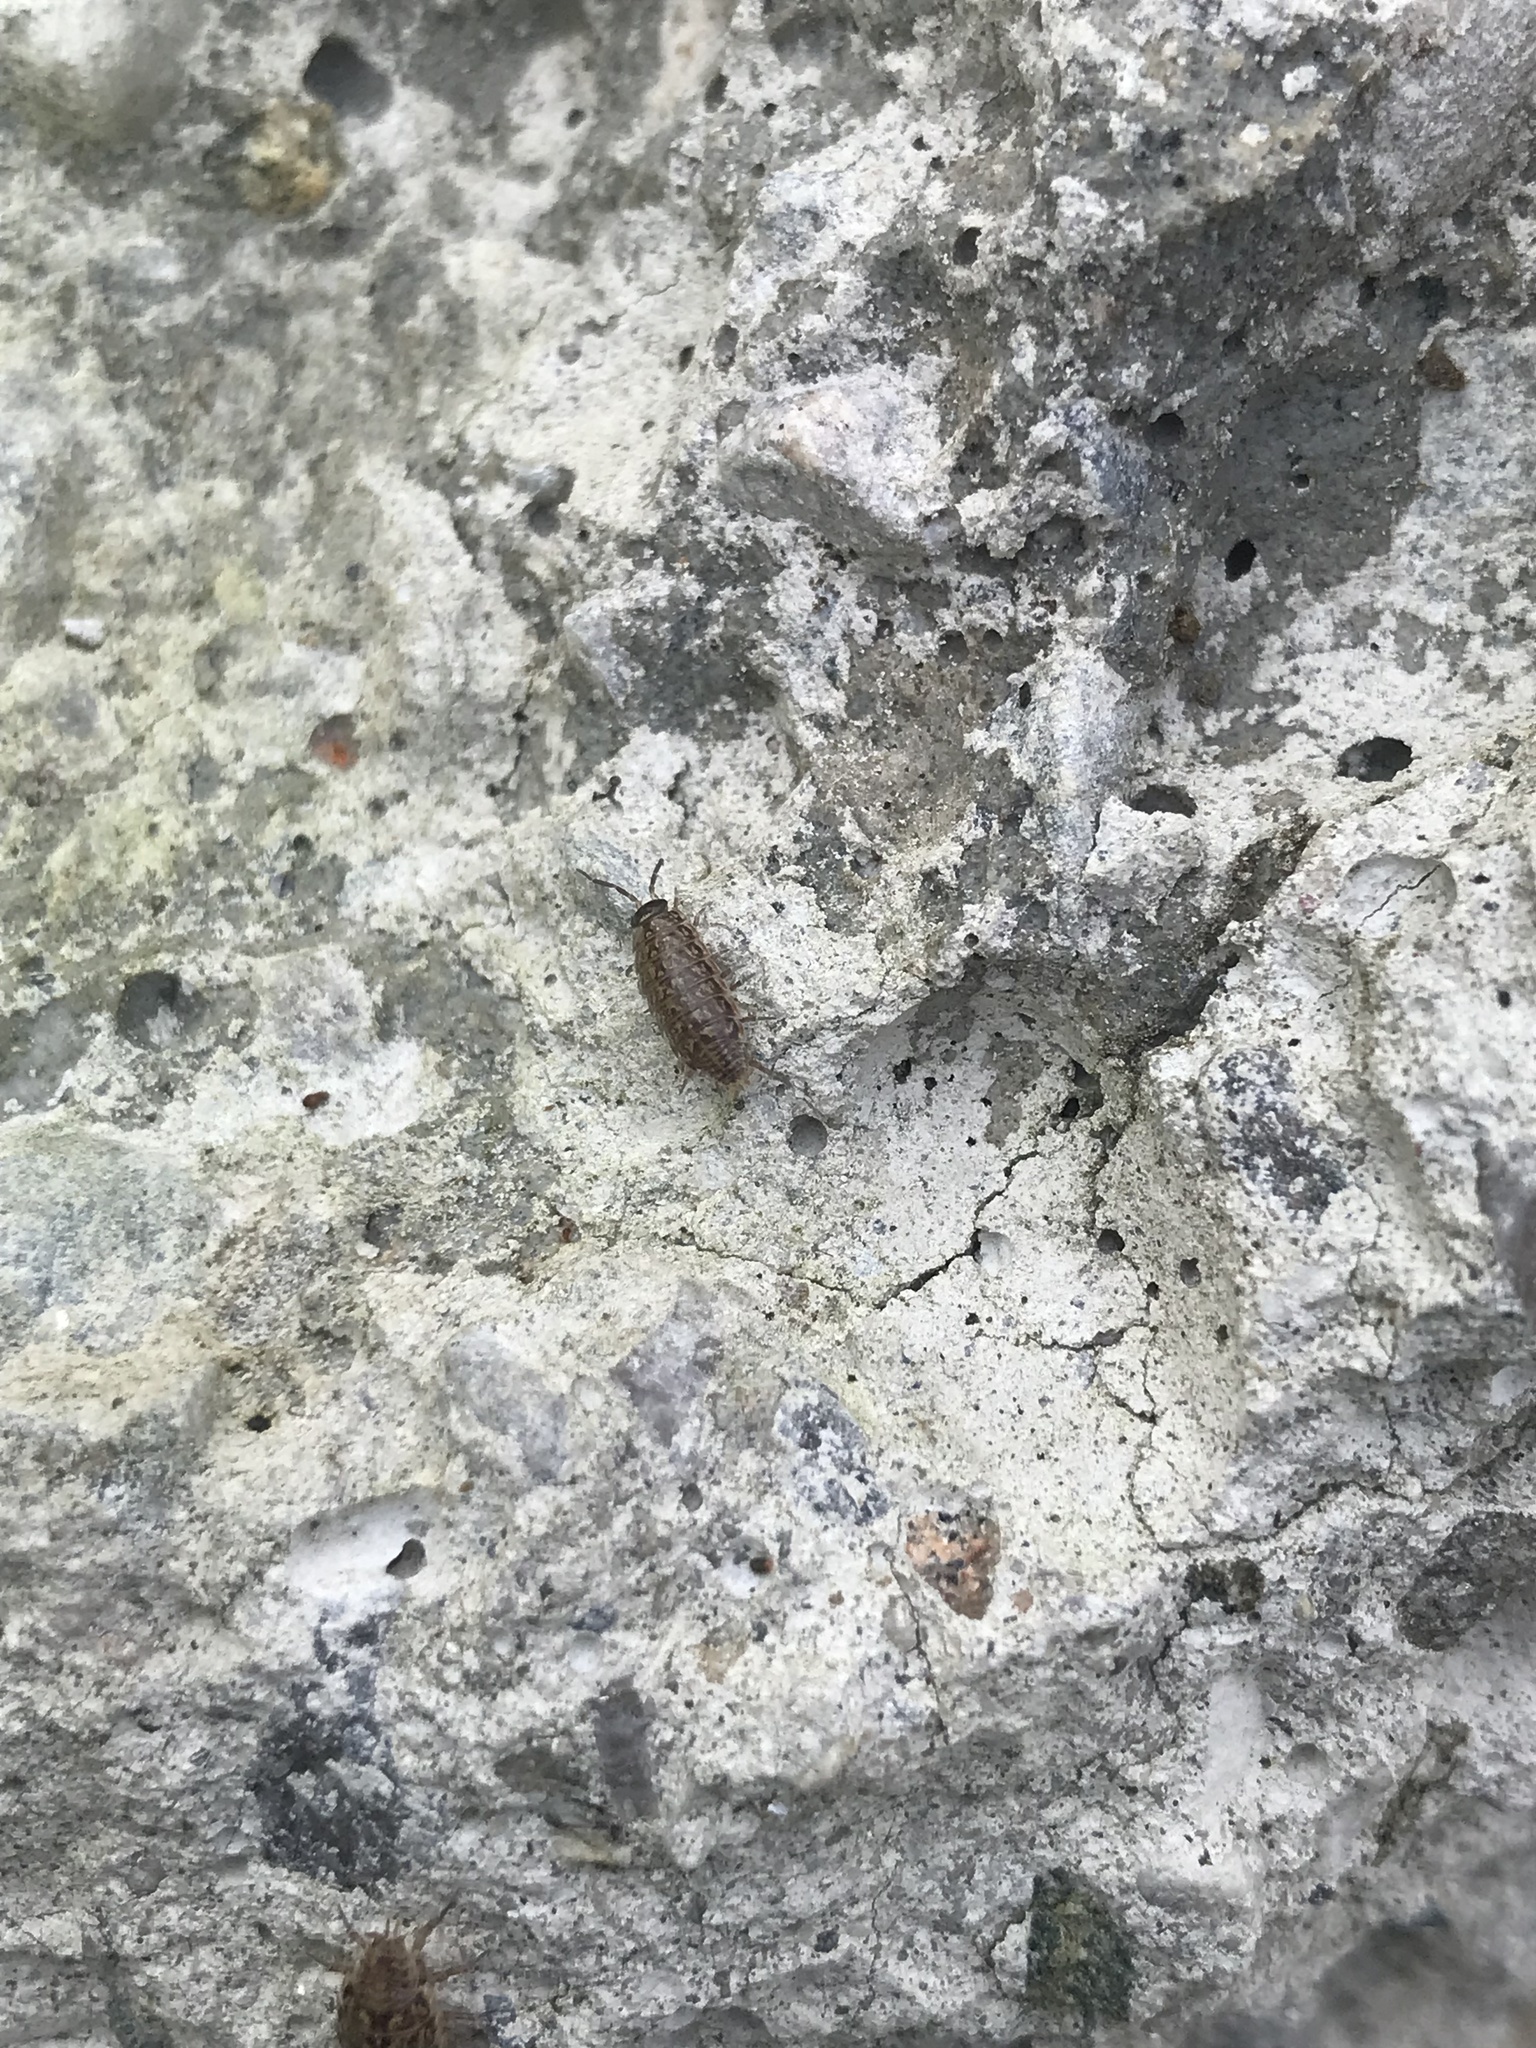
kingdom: Animalia
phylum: Arthropoda
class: Malacostraca
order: Isopoda
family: Philosciidae
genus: Philoscia
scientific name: Philoscia muscorum
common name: Common striped woodlouse
